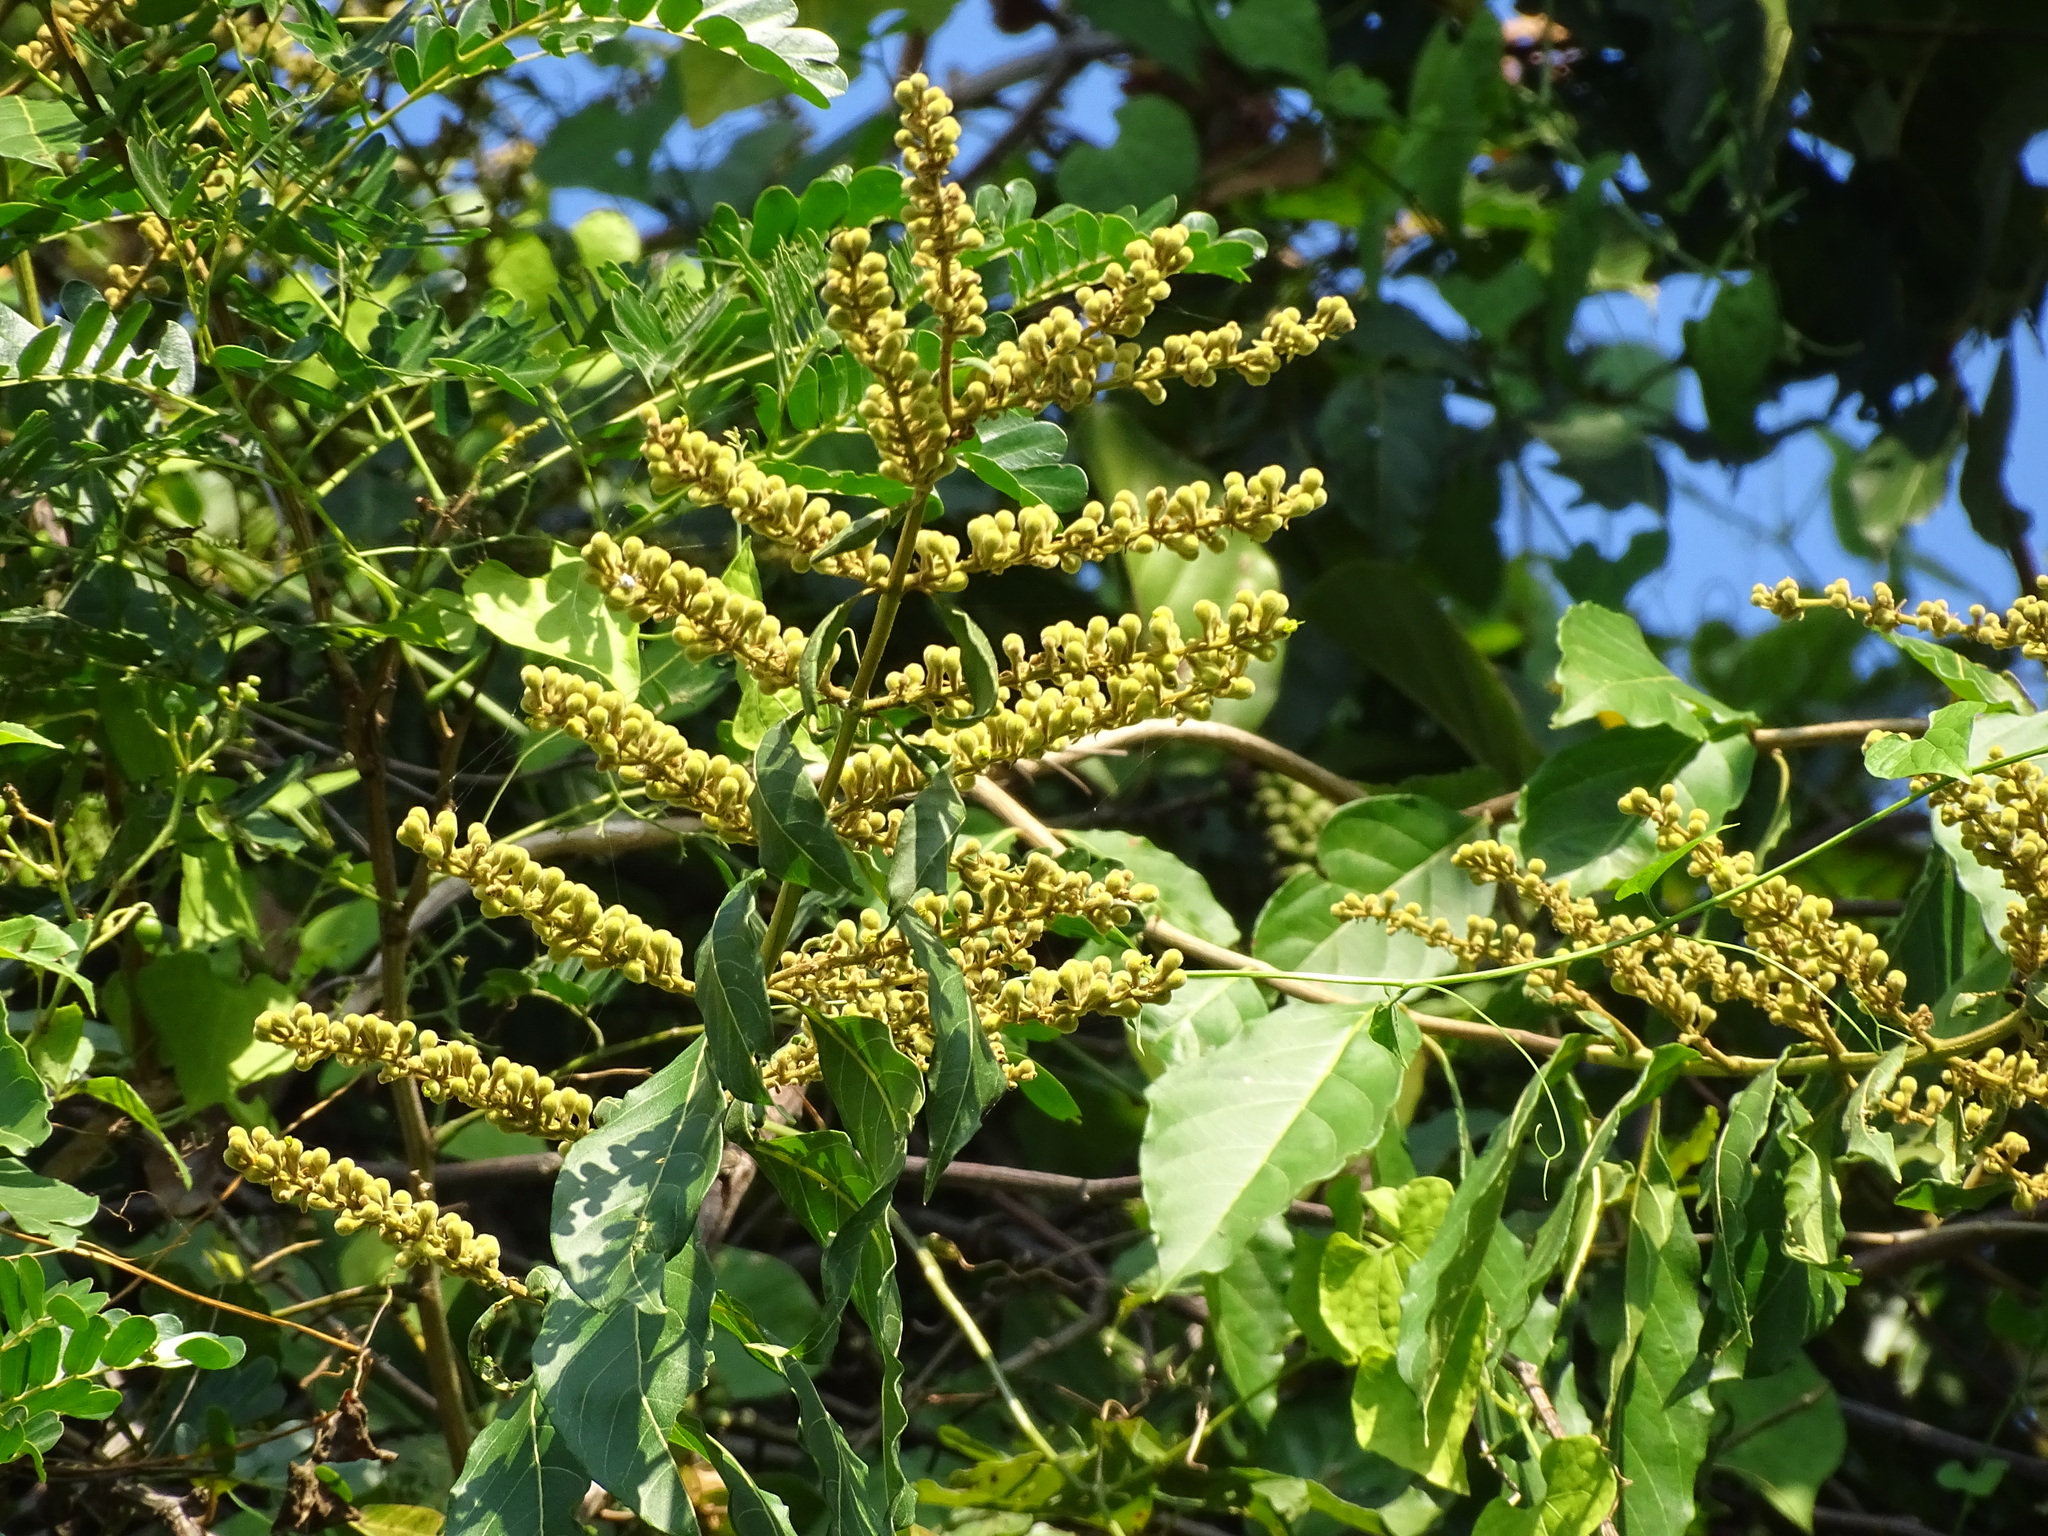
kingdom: Plantae
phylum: Tracheophyta
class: Magnoliopsida
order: Myrtales
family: Combretaceae
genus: Combretum
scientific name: Combretum fruticosum
